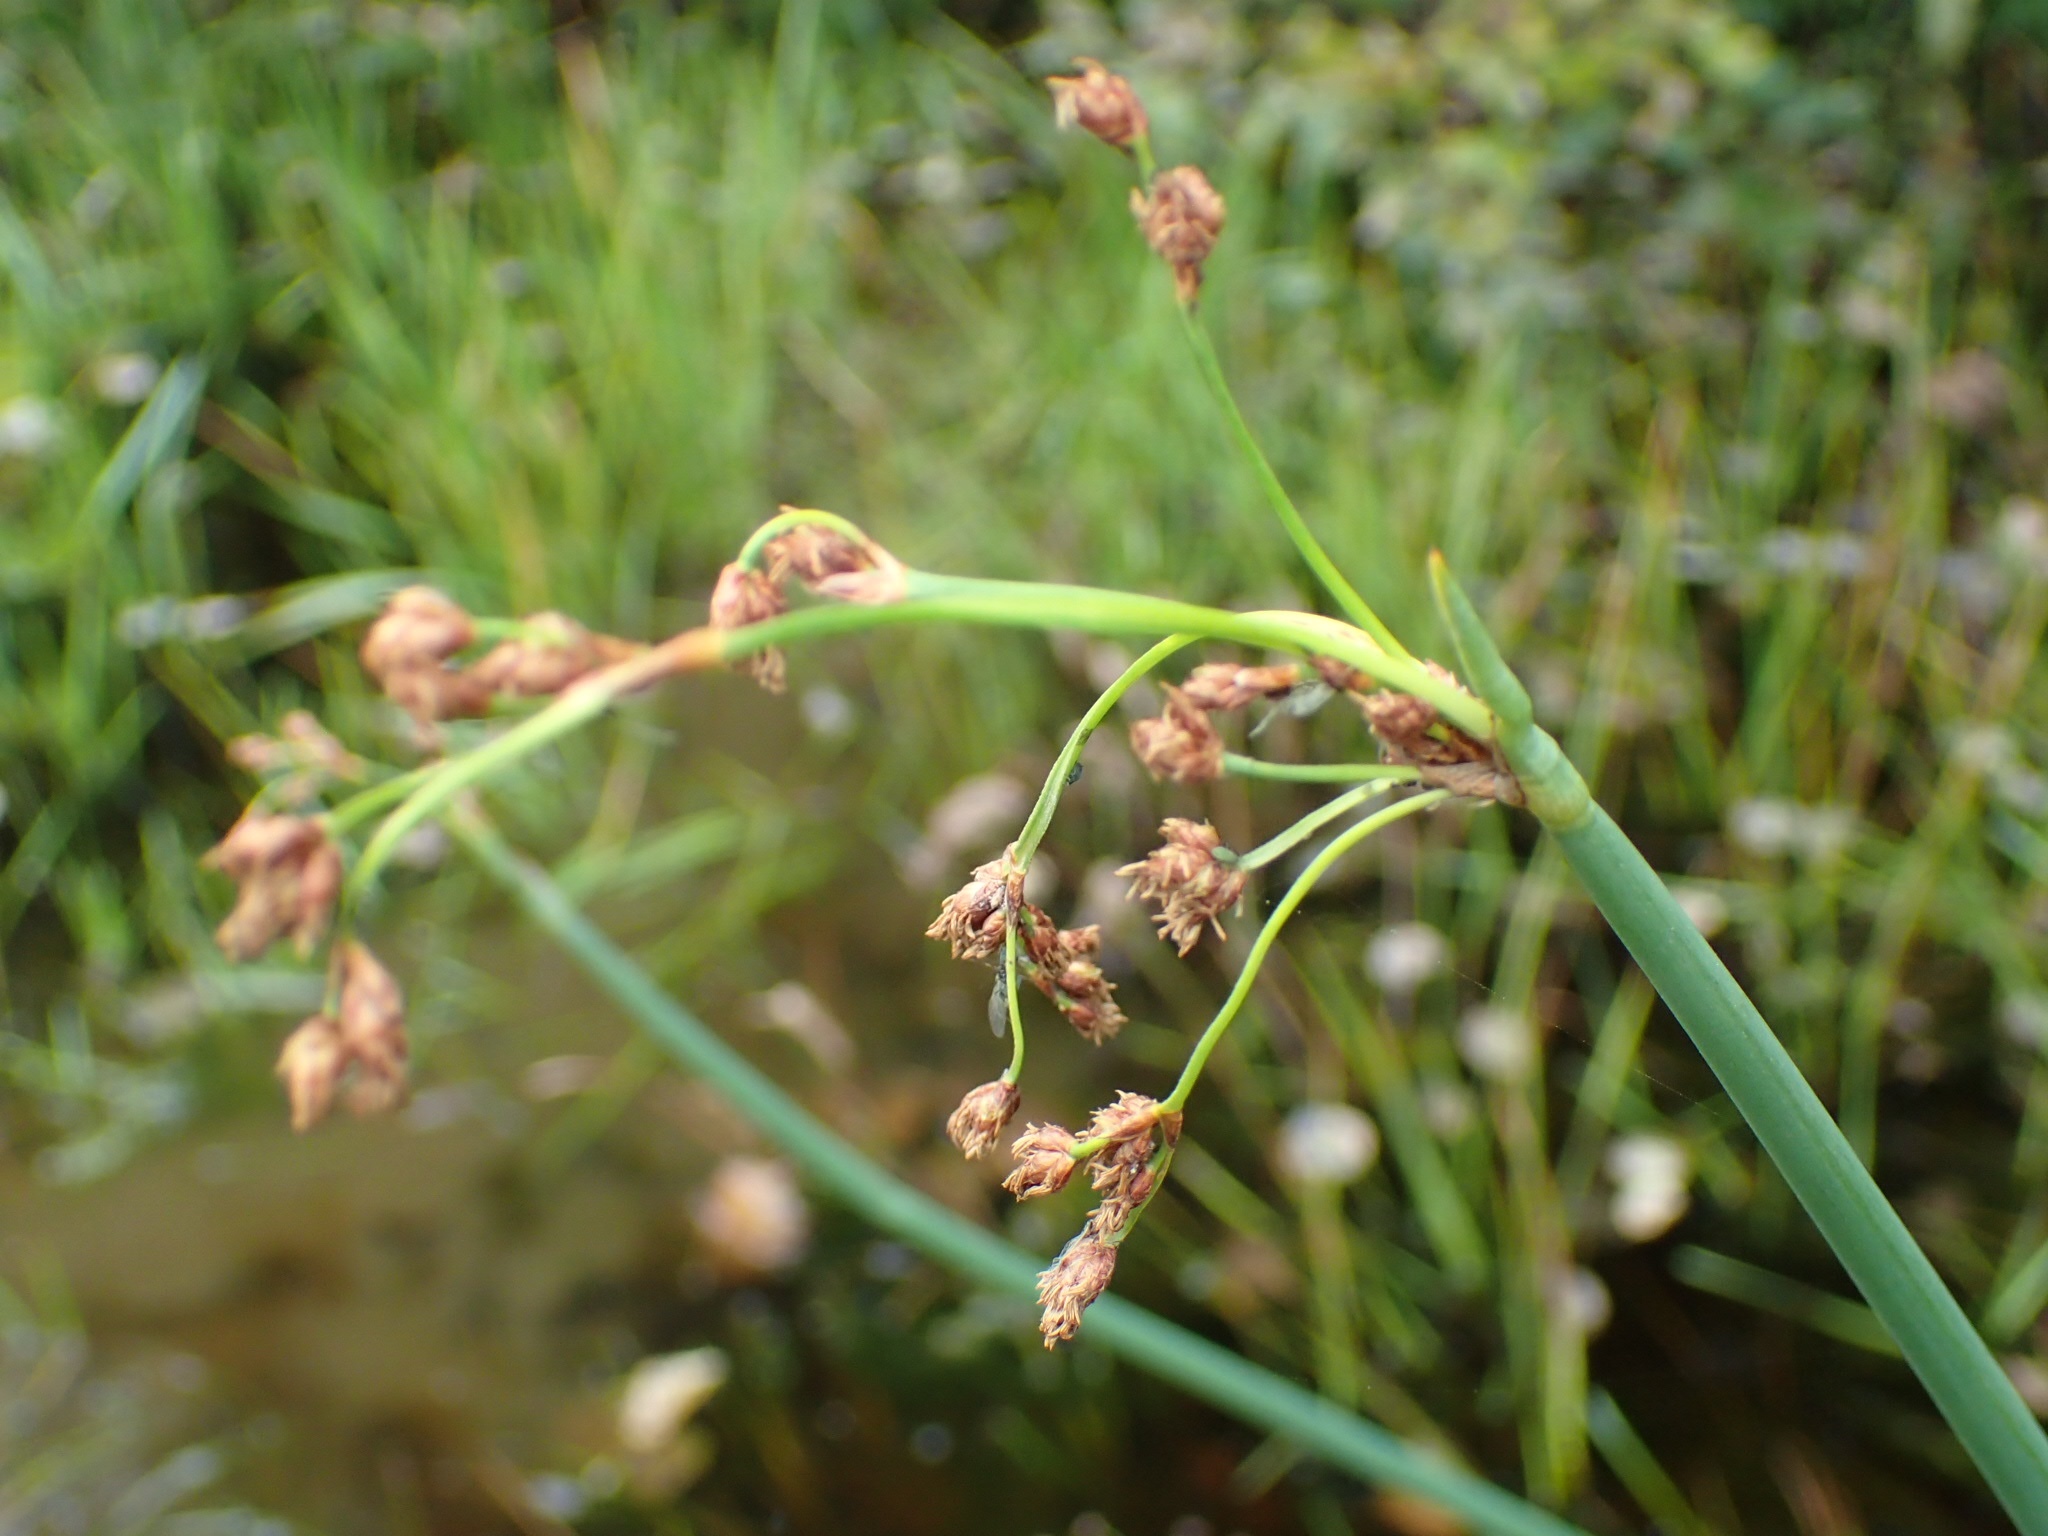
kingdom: Plantae
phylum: Tracheophyta
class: Liliopsida
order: Poales
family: Cyperaceae
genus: Schoenoplectus
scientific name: Schoenoplectus tabernaemontani
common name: Grey club-rush
